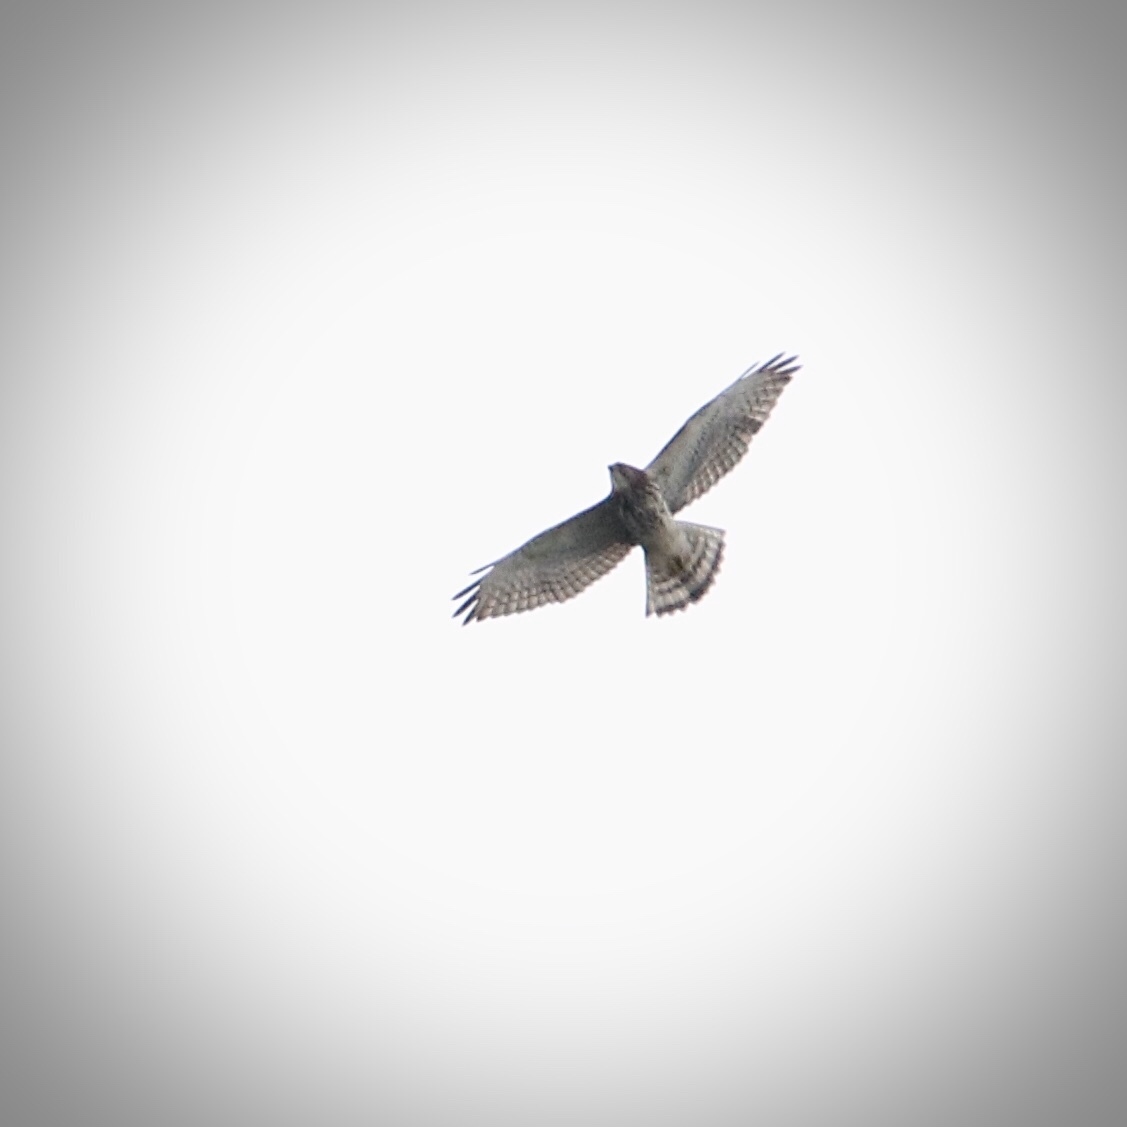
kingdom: Animalia
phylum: Chordata
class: Aves
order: Accipitriformes
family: Accipitridae
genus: Buteo
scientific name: Buteo platypterus
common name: Broad-winged hawk
